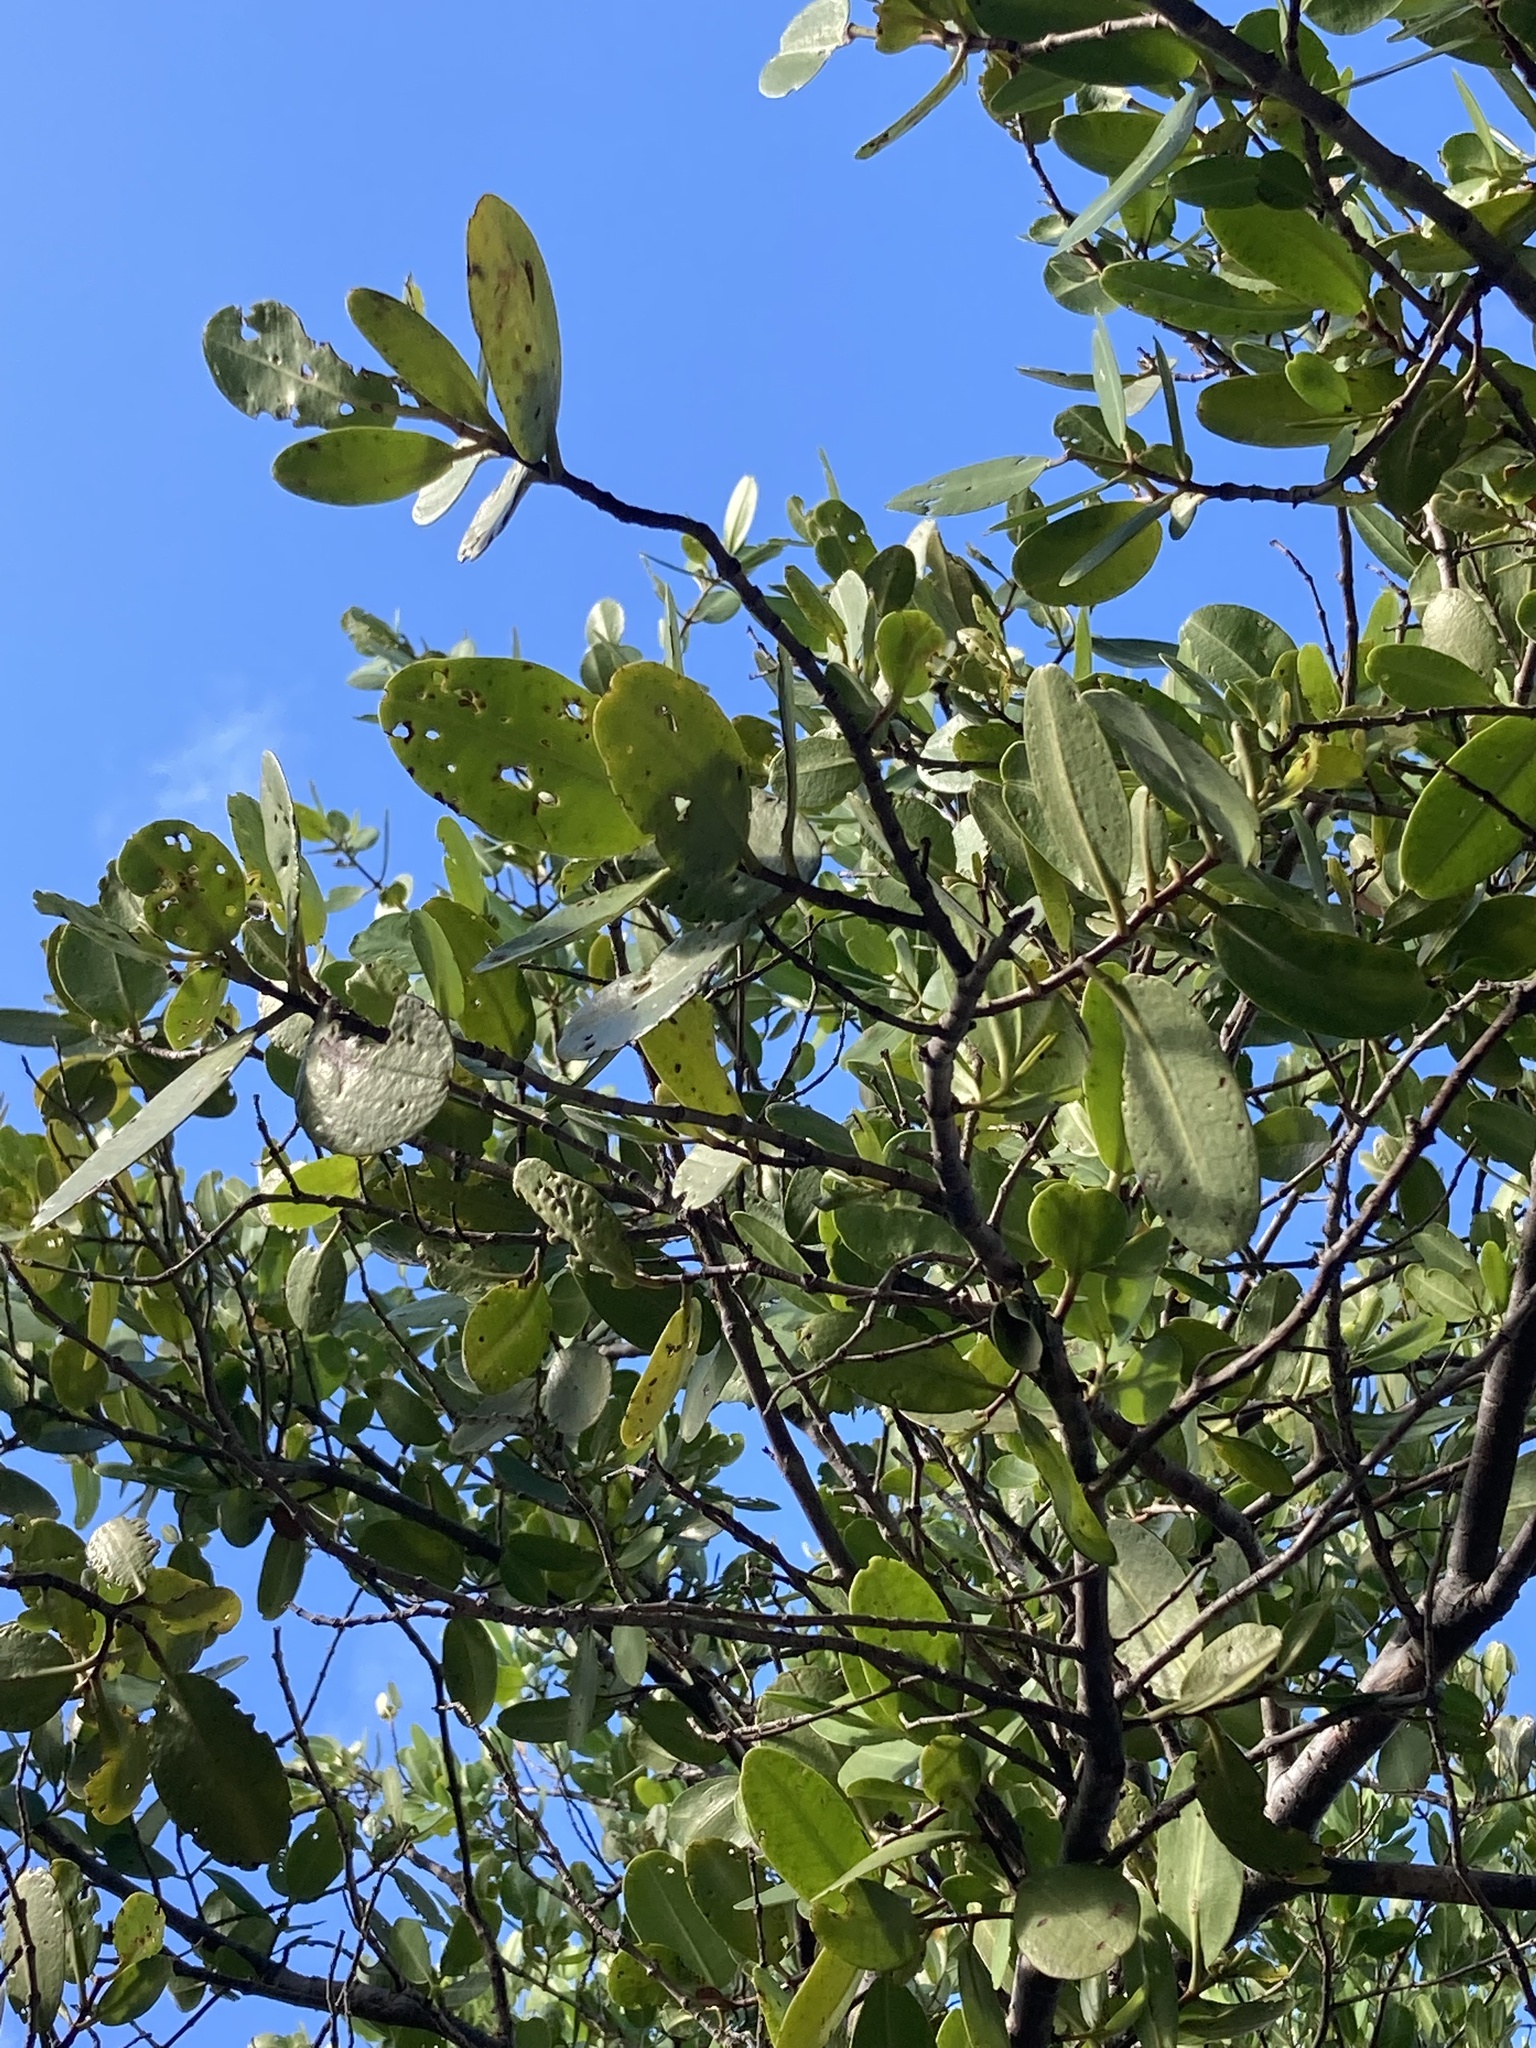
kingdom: Plantae
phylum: Tracheophyta
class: Magnoliopsida
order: Myrtales
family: Combretaceae
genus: Laguncularia
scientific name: Laguncularia racemosa
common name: White mangrove
